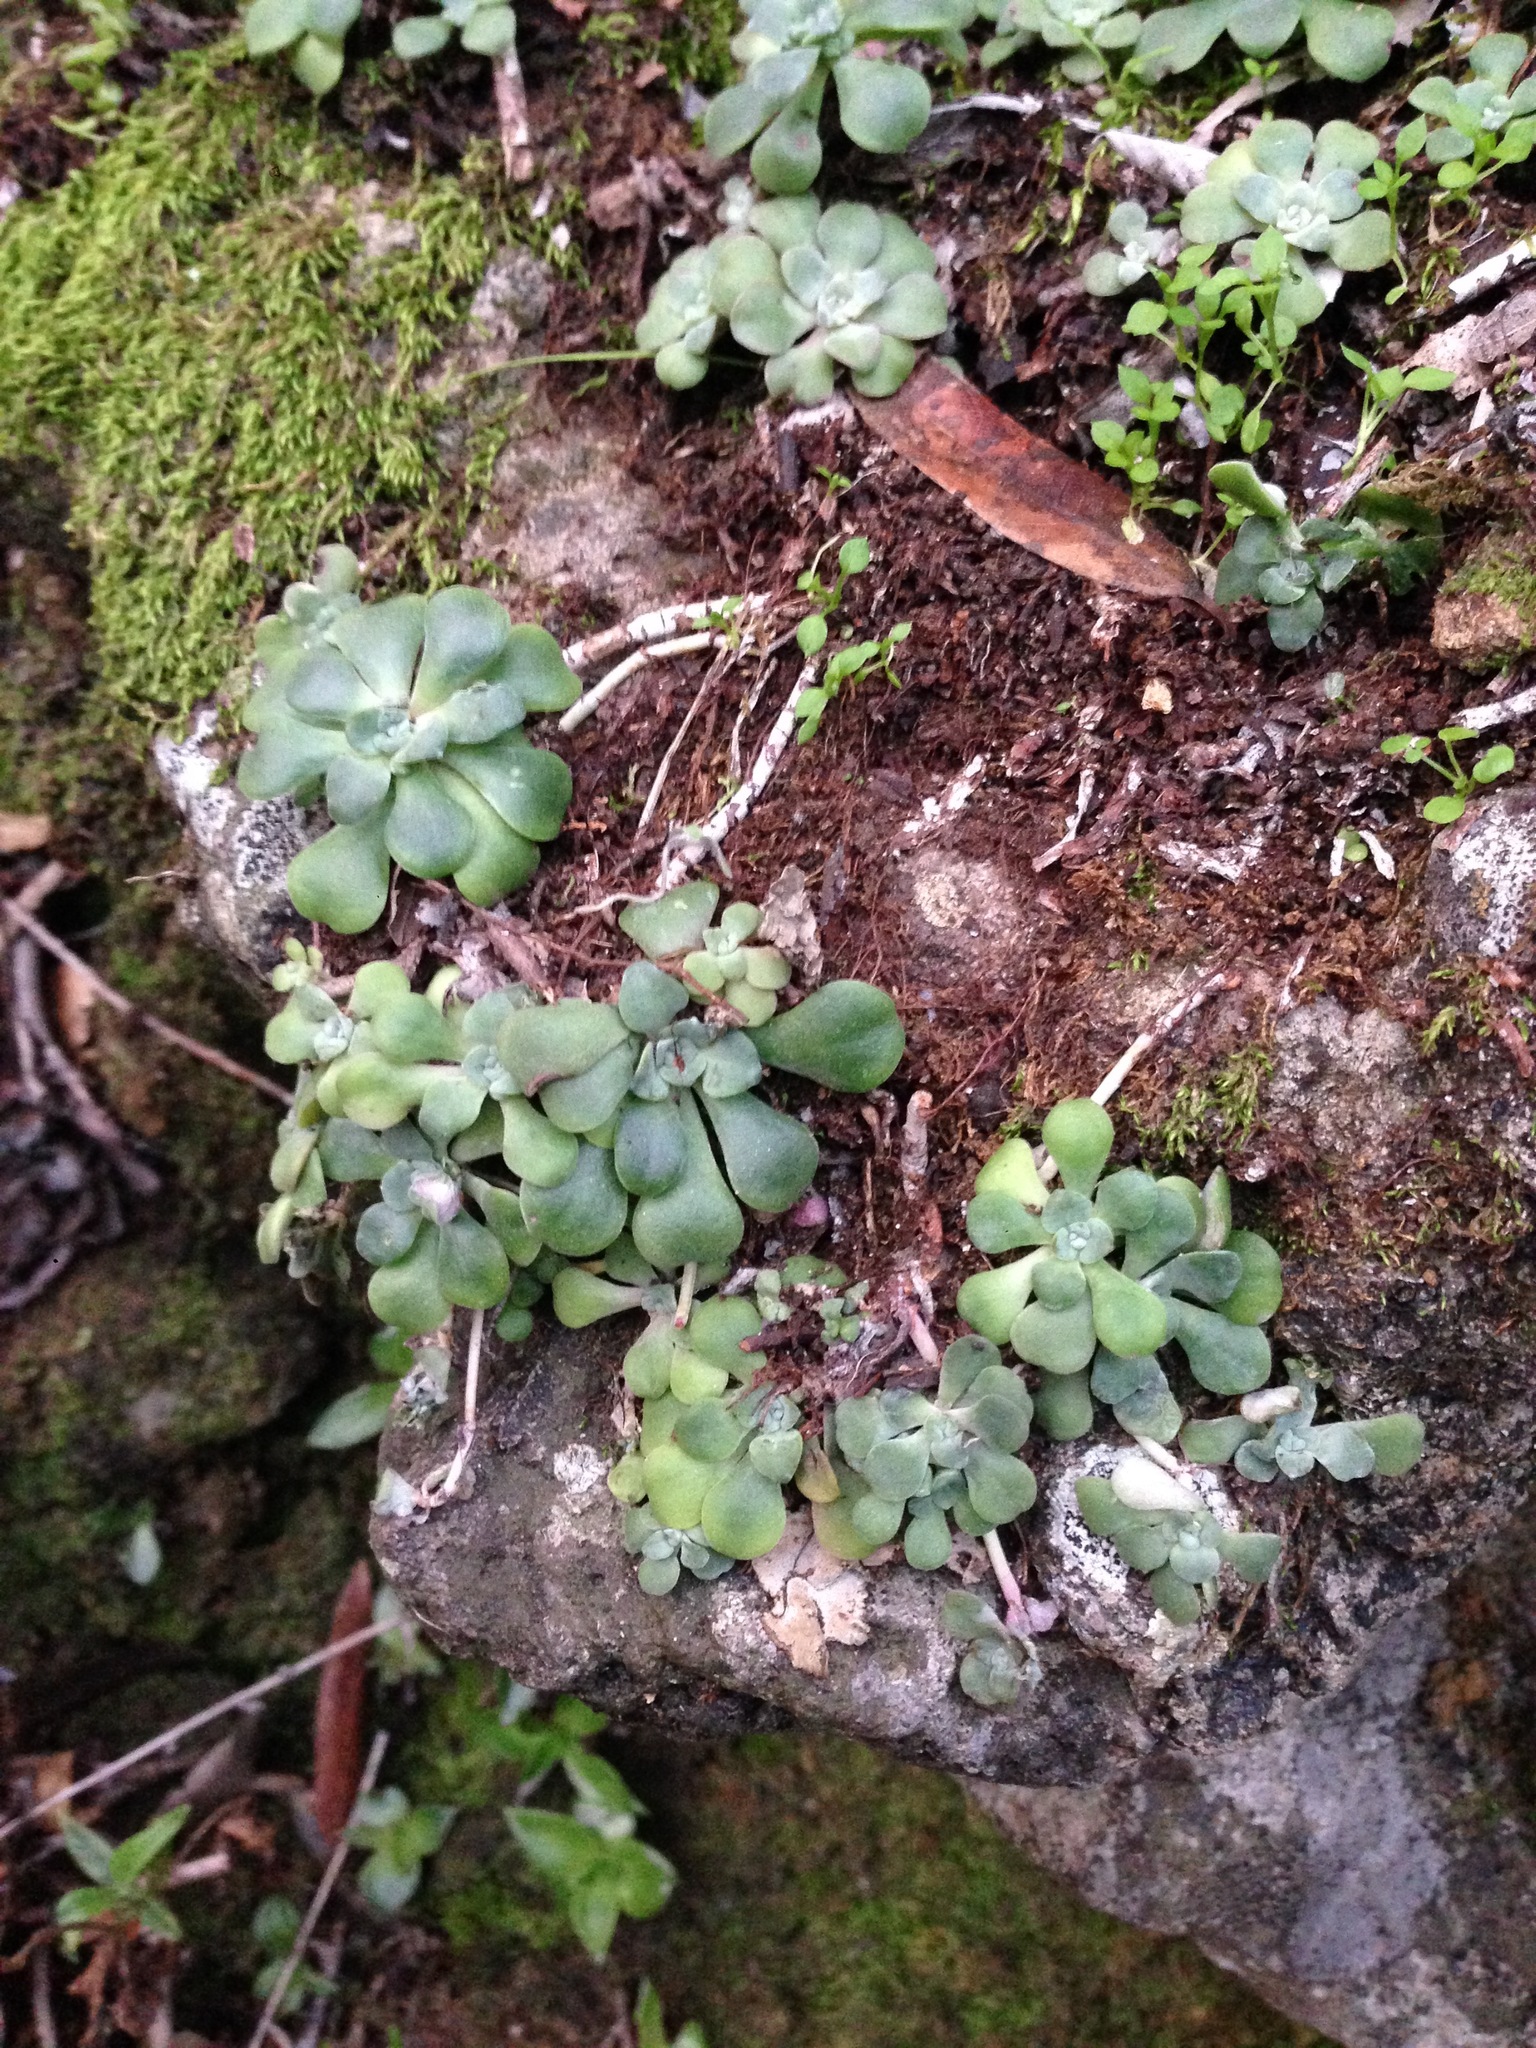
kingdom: Plantae
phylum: Tracheophyta
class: Magnoliopsida
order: Saxifragales
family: Crassulaceae
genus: Sedum
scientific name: Sedum spathulifolium
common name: Colorado stonecrop
